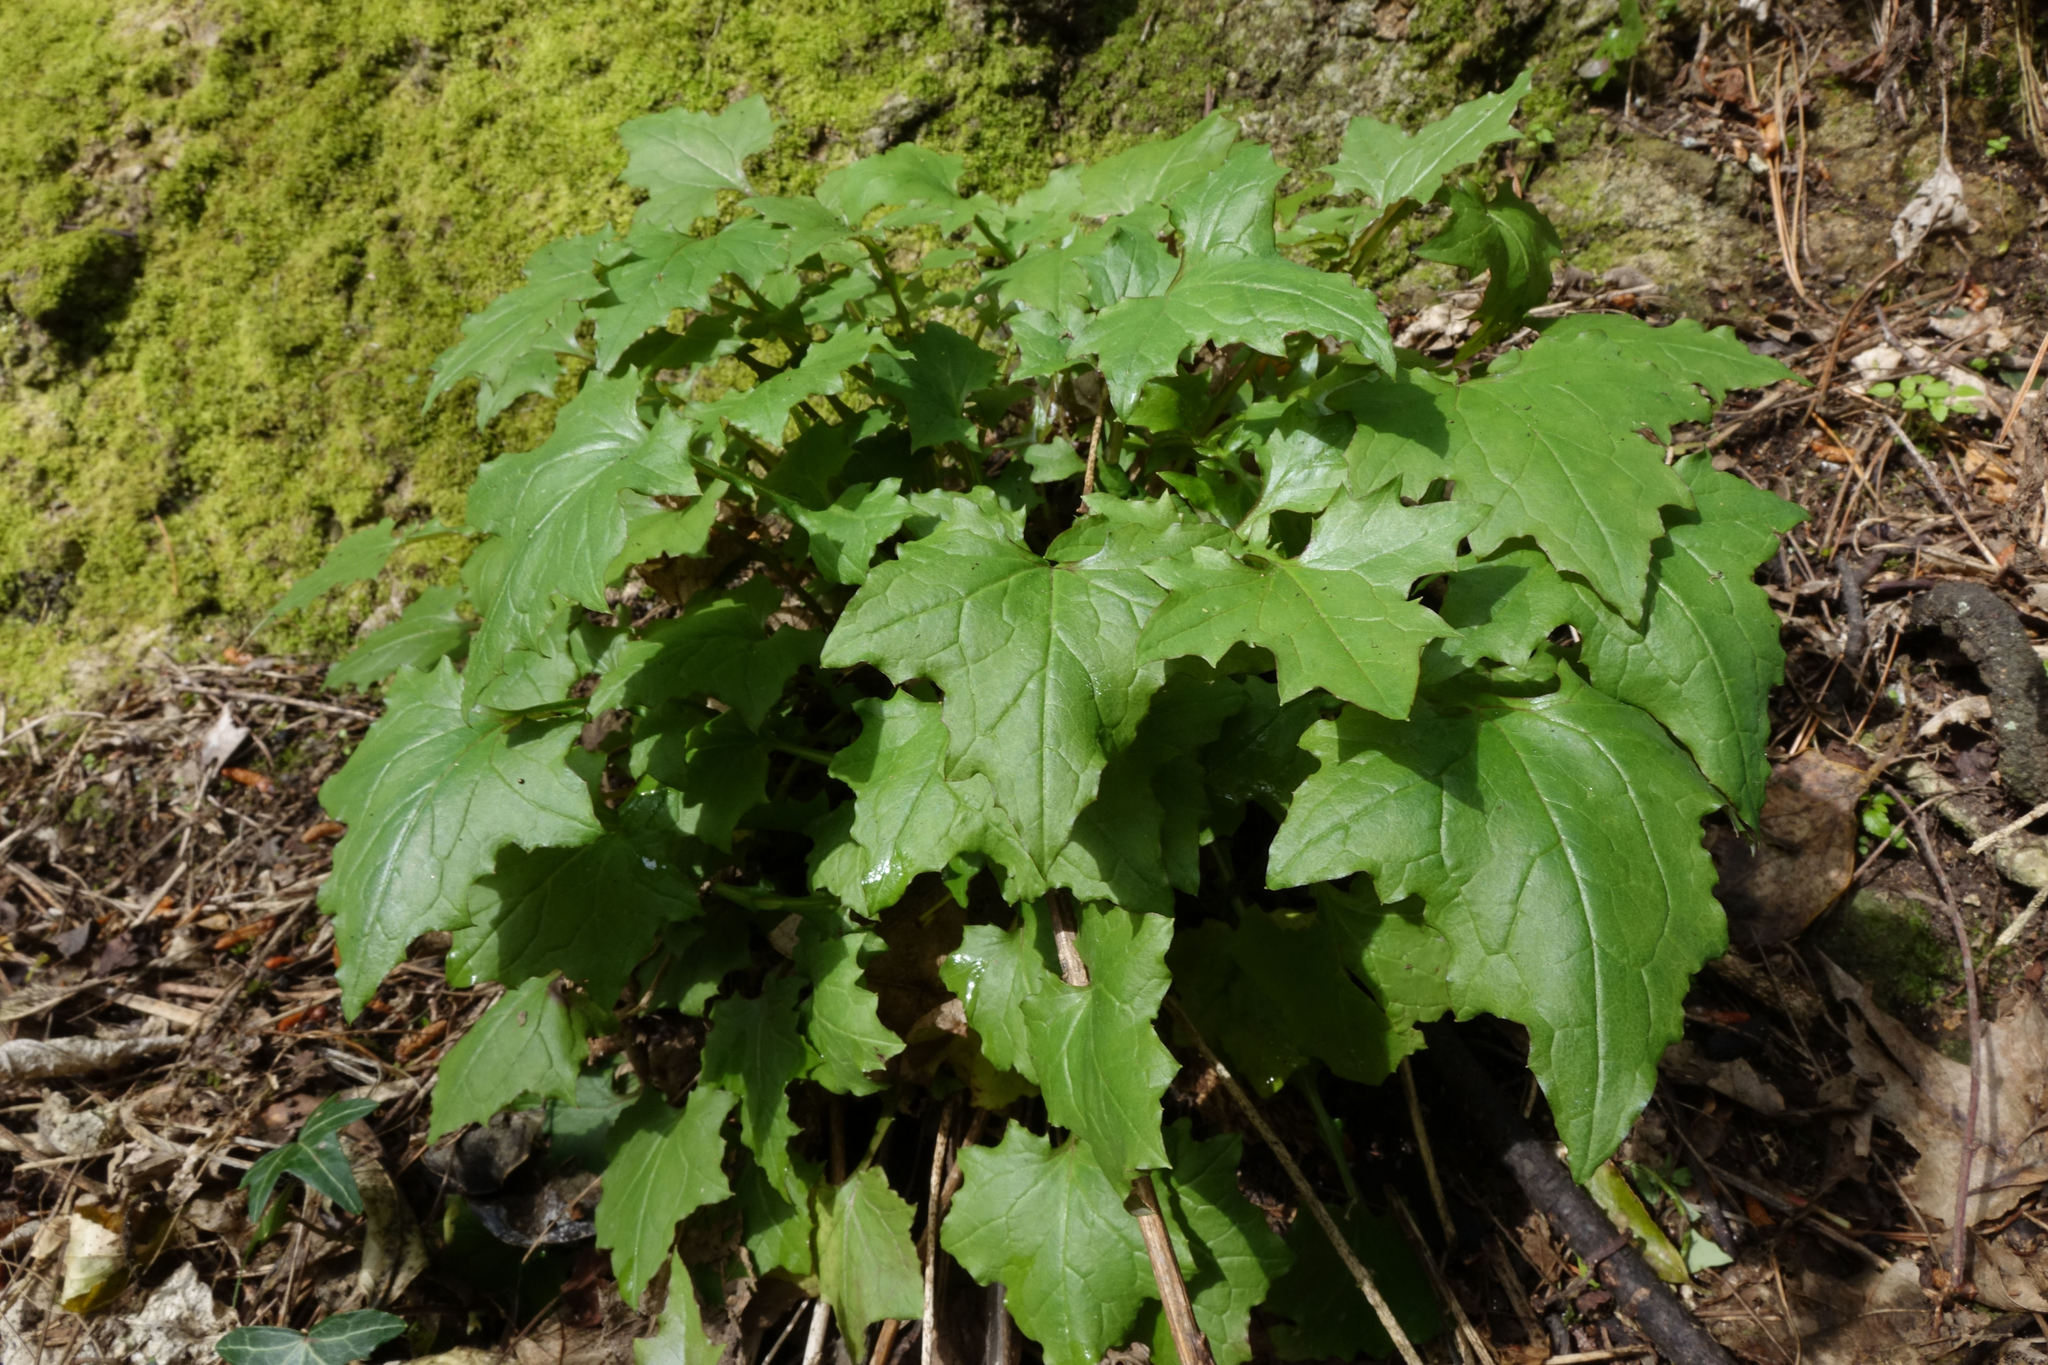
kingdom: Plantae
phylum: Tracheophyta
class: Magnoliopsida
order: Asterales
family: Asteraceae
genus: Mycelis
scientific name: Mycelis muralis
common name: Wall lettuce
